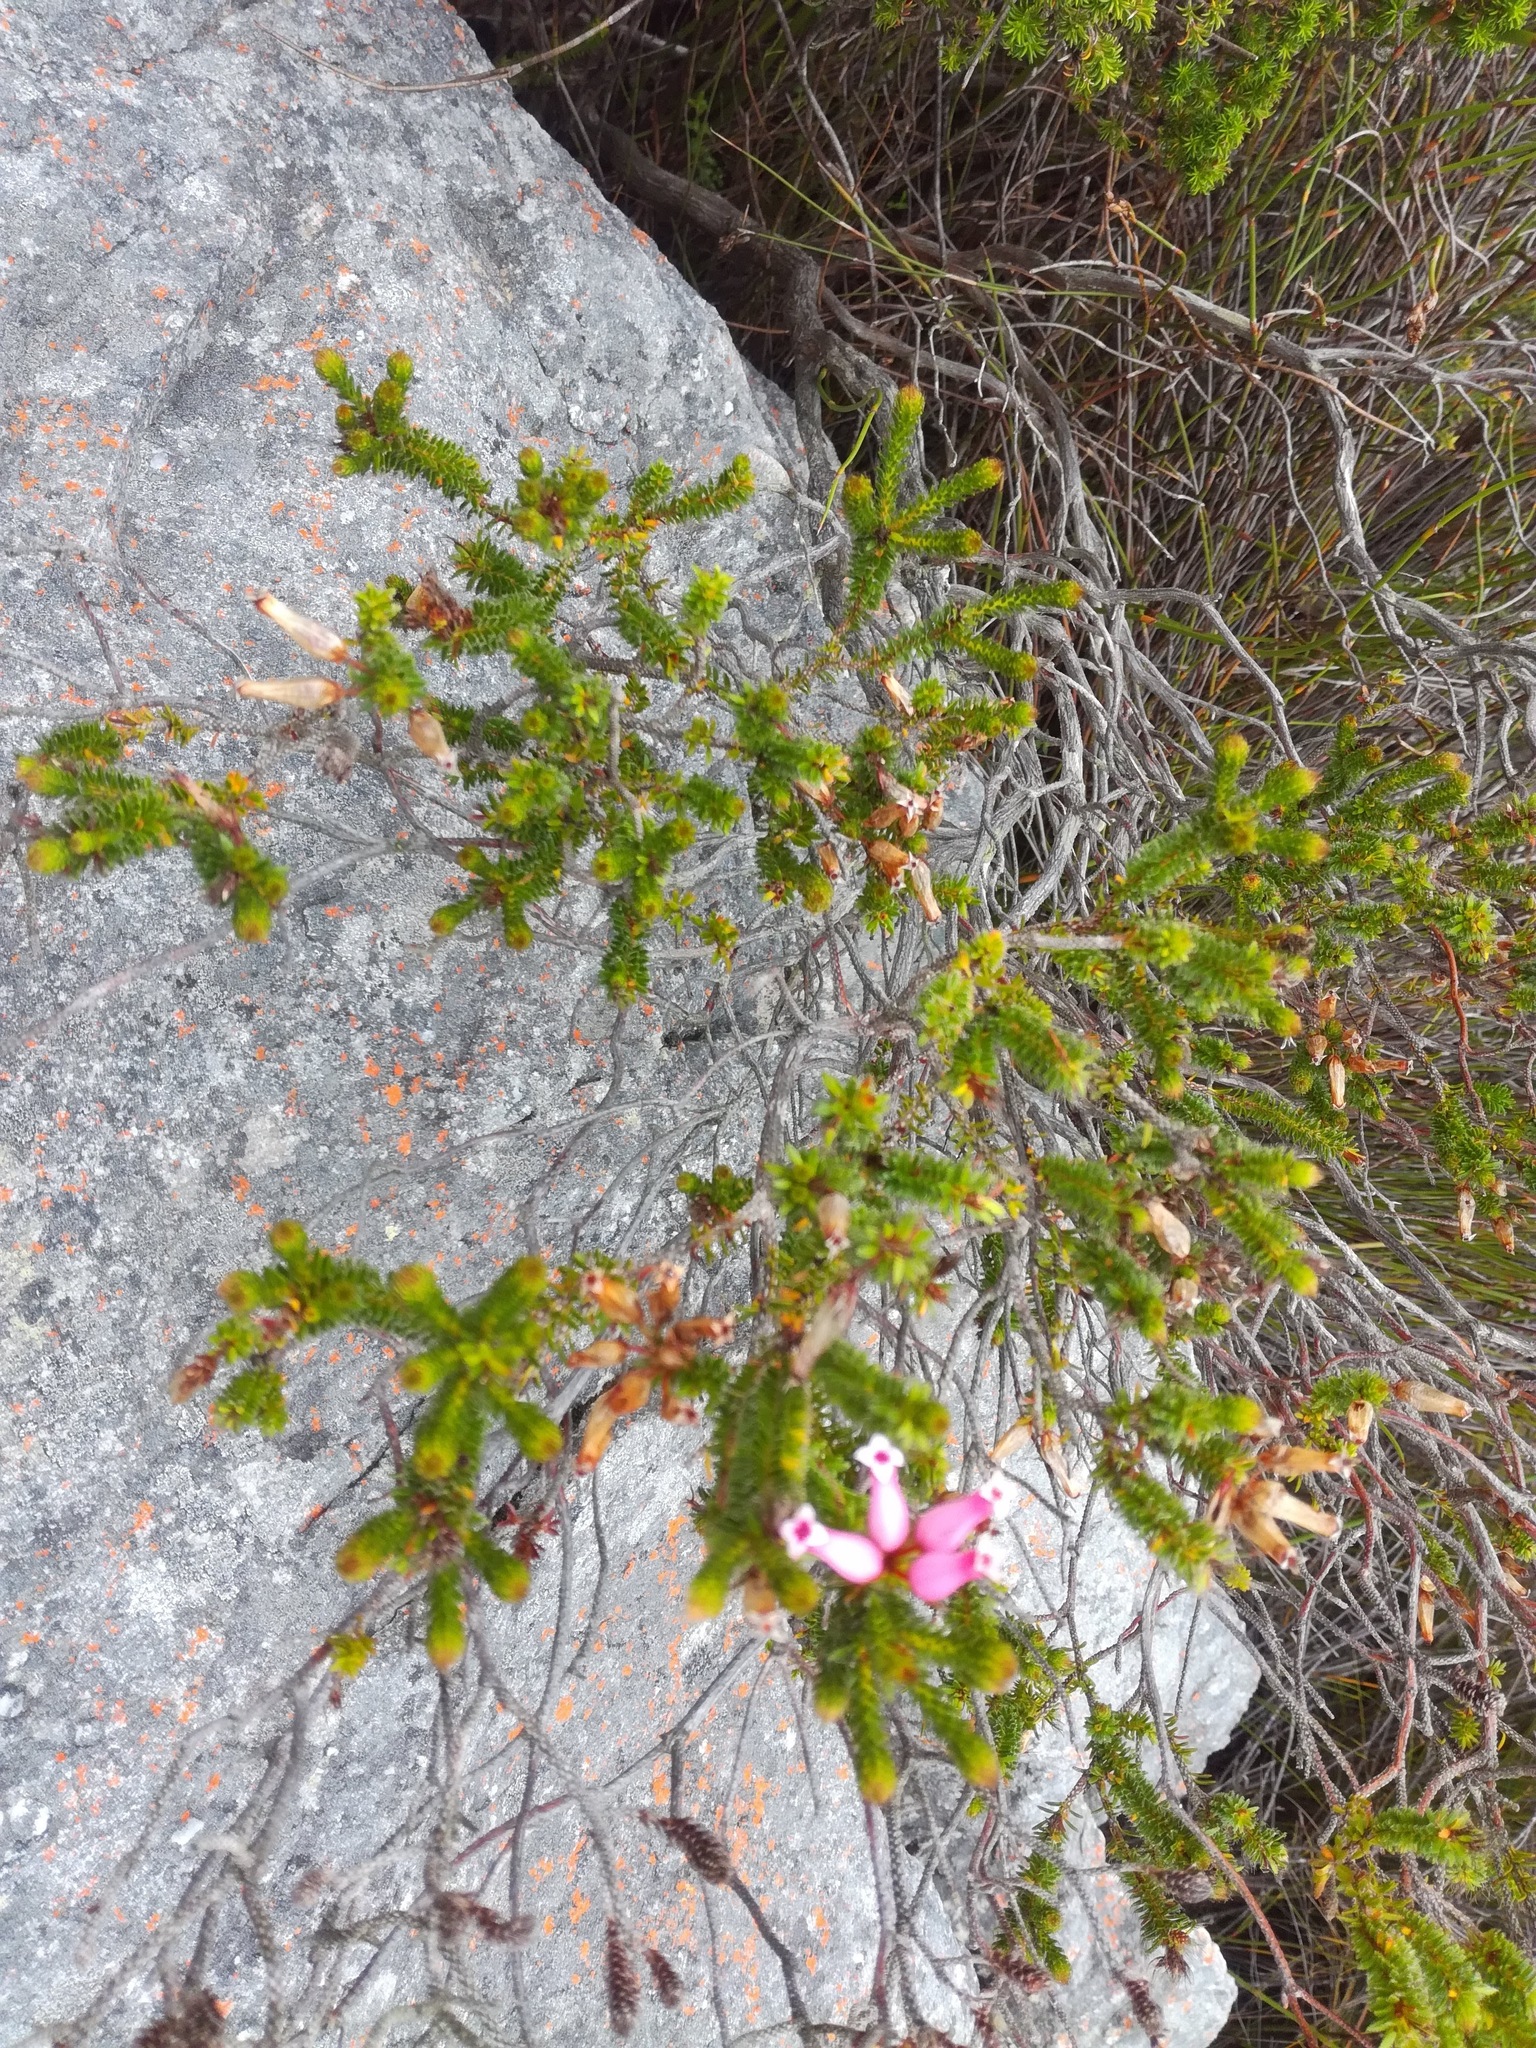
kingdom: Plantae
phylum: Tracheophyta
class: Magnoliopsida
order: Ericales
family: Ericaceae
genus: Erica
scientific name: Erica gysbertii
